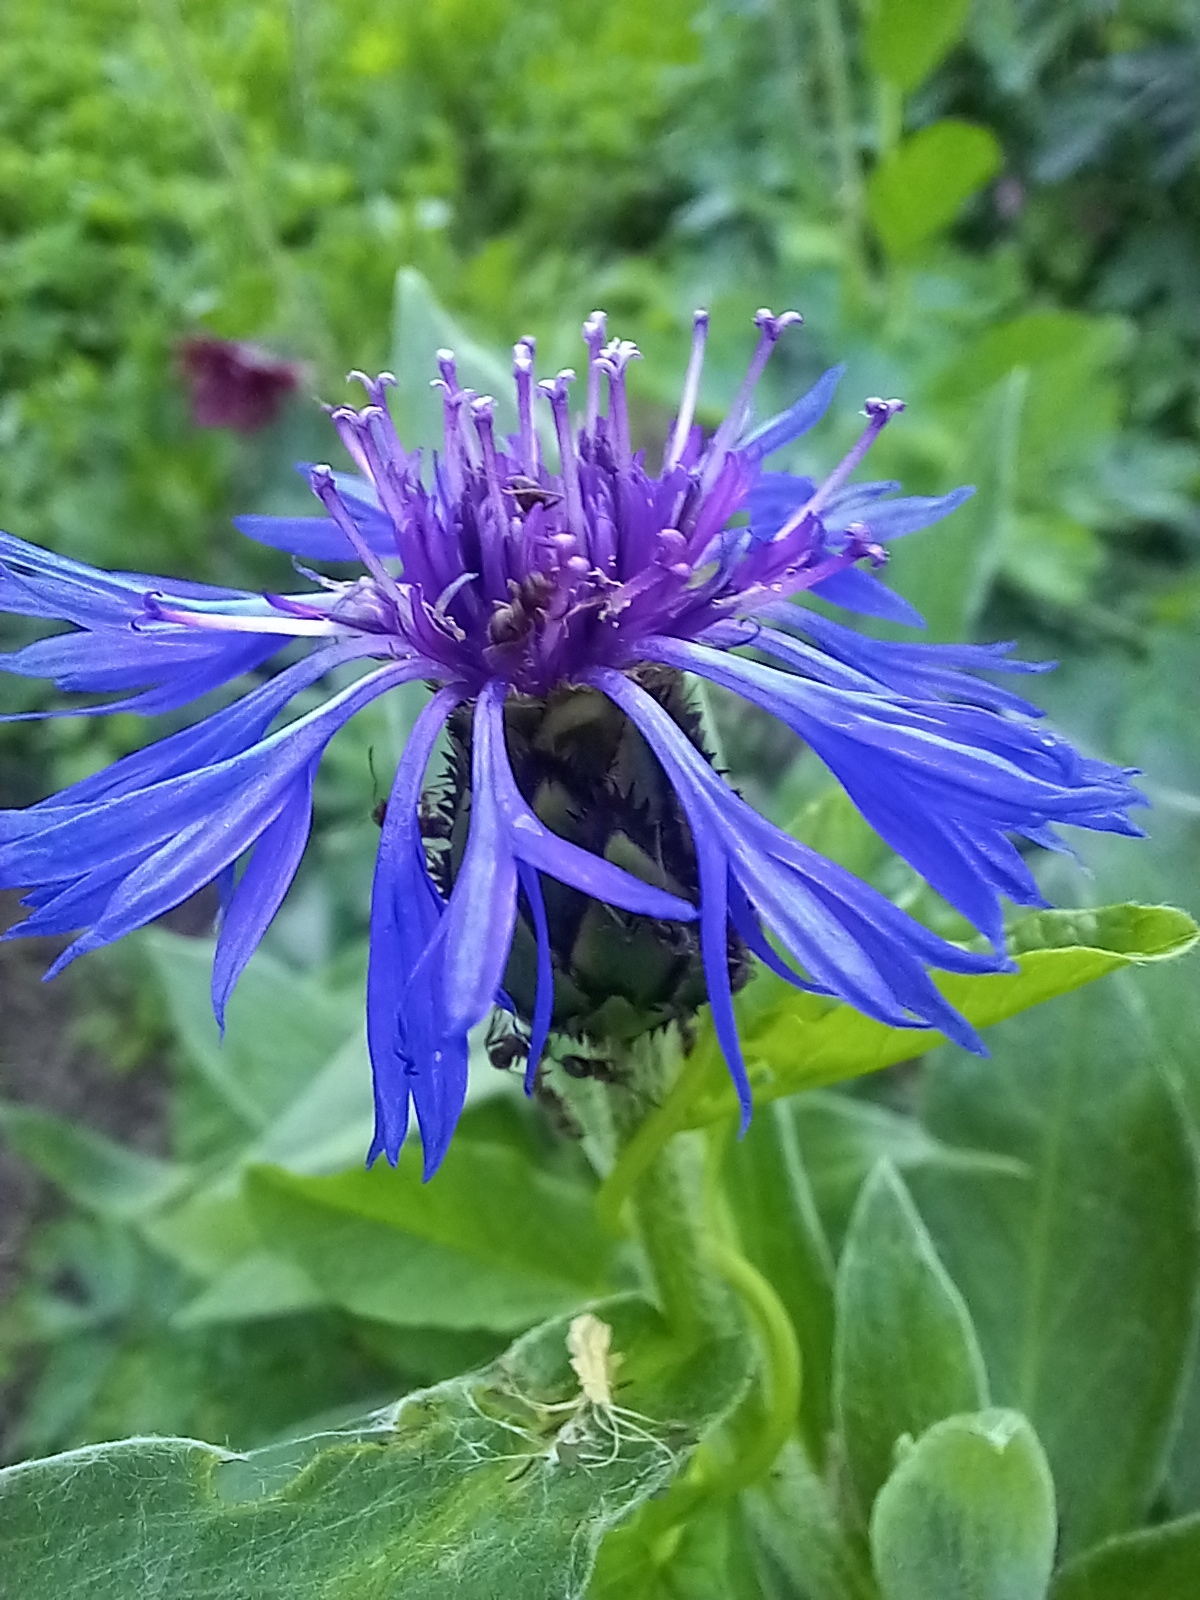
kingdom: Plantae
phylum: Tracheophyta
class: Magnoliopsida
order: Asterales
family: Asteraceae
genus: Centaurea
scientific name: Centaurea montana
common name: Perennial cornflower
